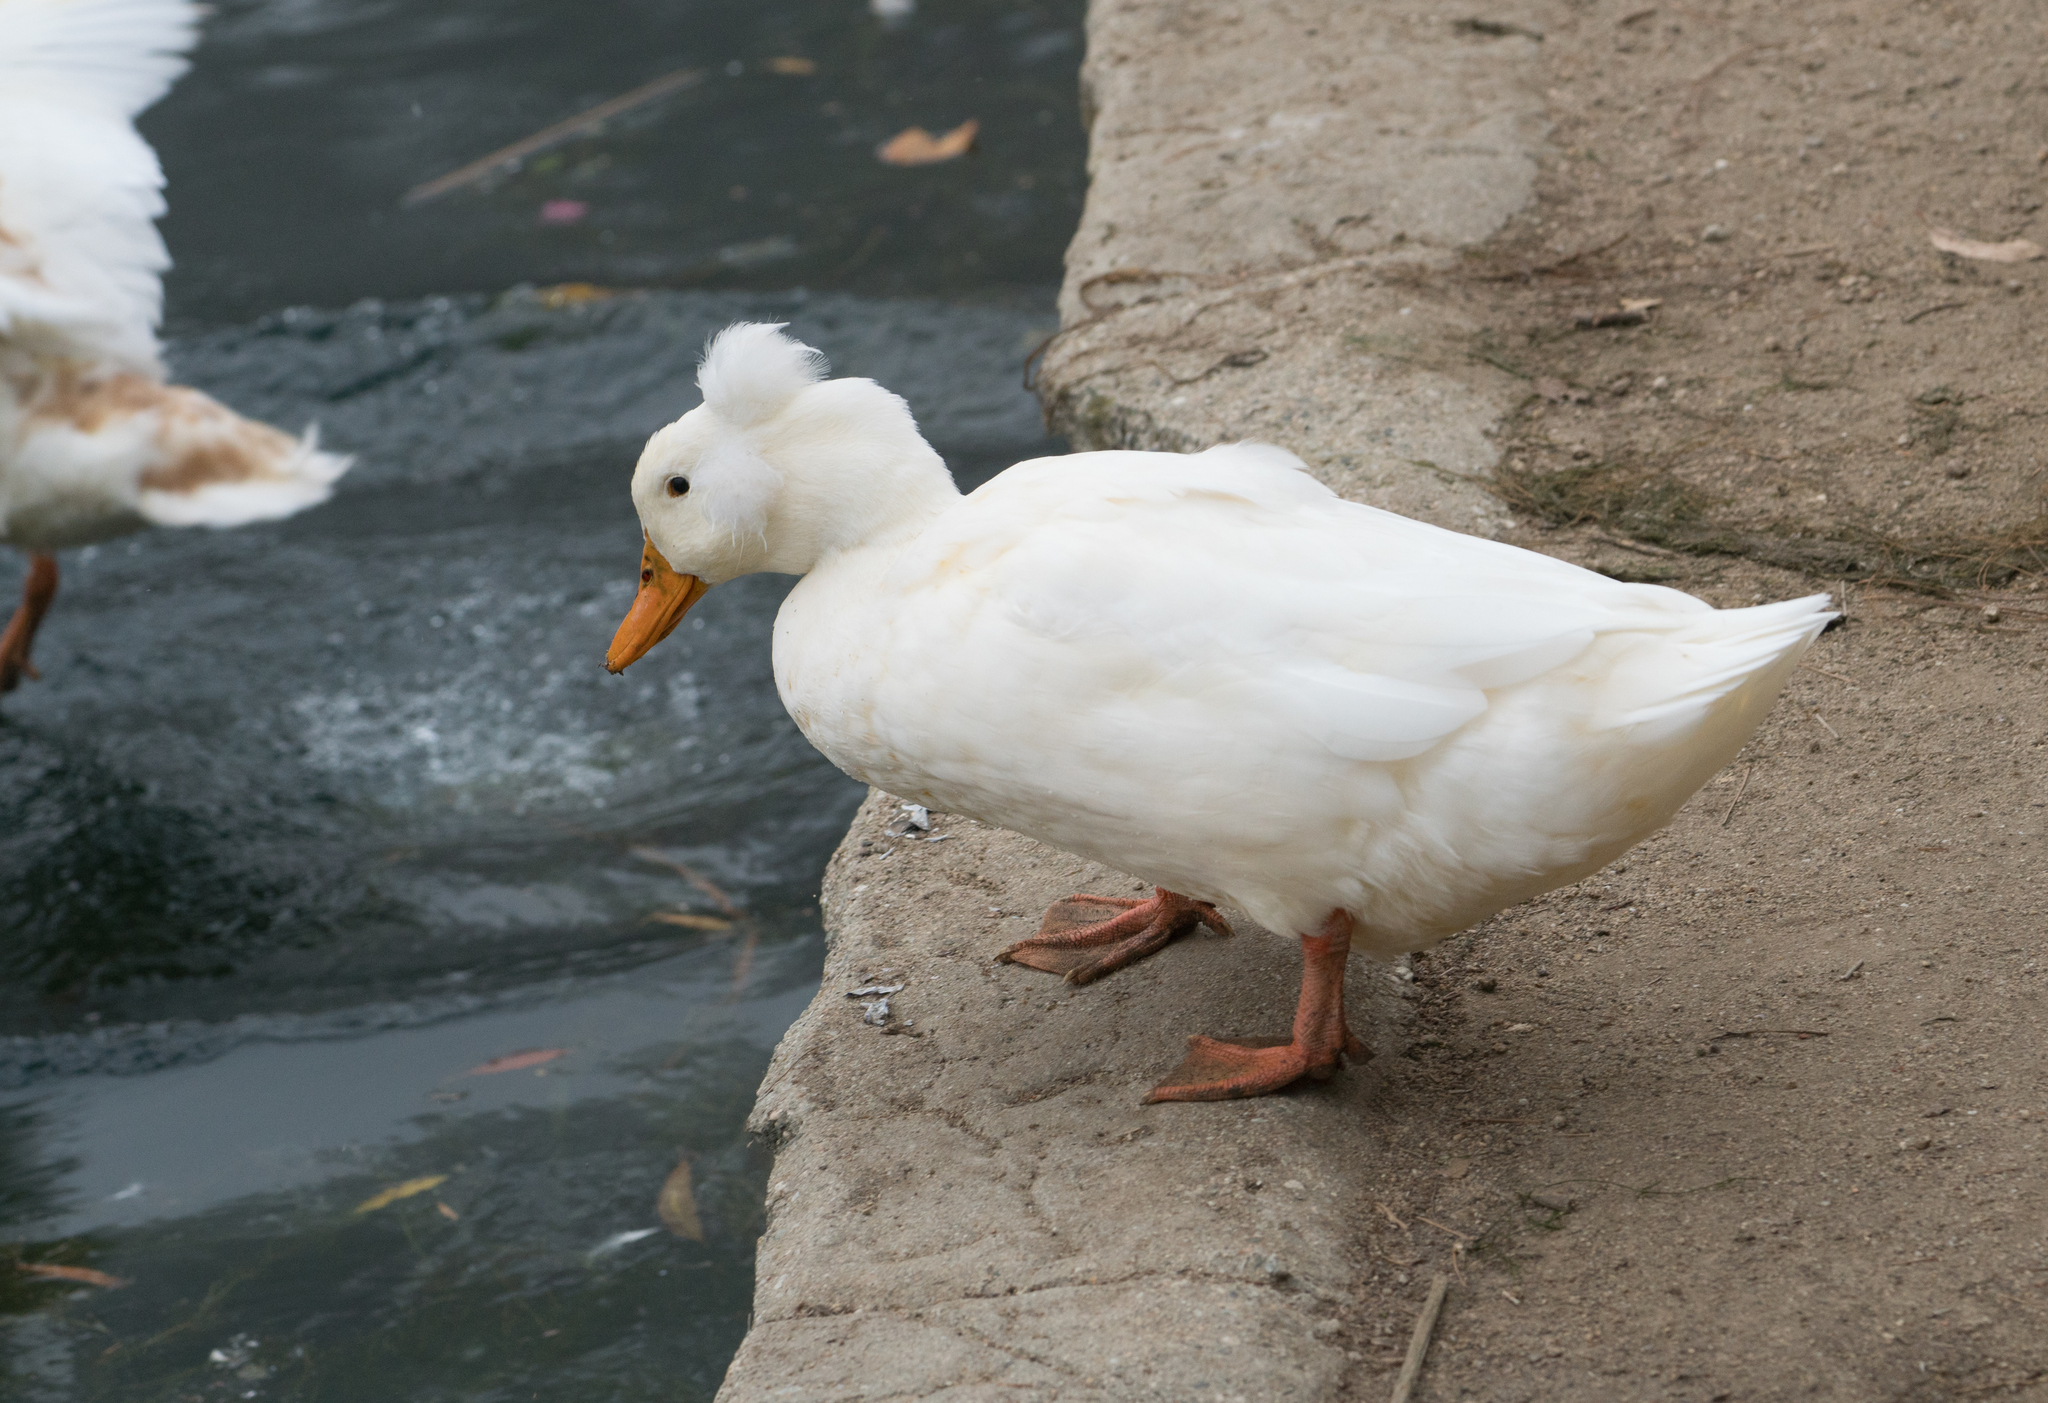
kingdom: Animalia
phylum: Chordata
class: Aves
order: Anseriformes
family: Anatidae
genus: Anas
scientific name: Anas platyrhynchos
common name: Mallard
